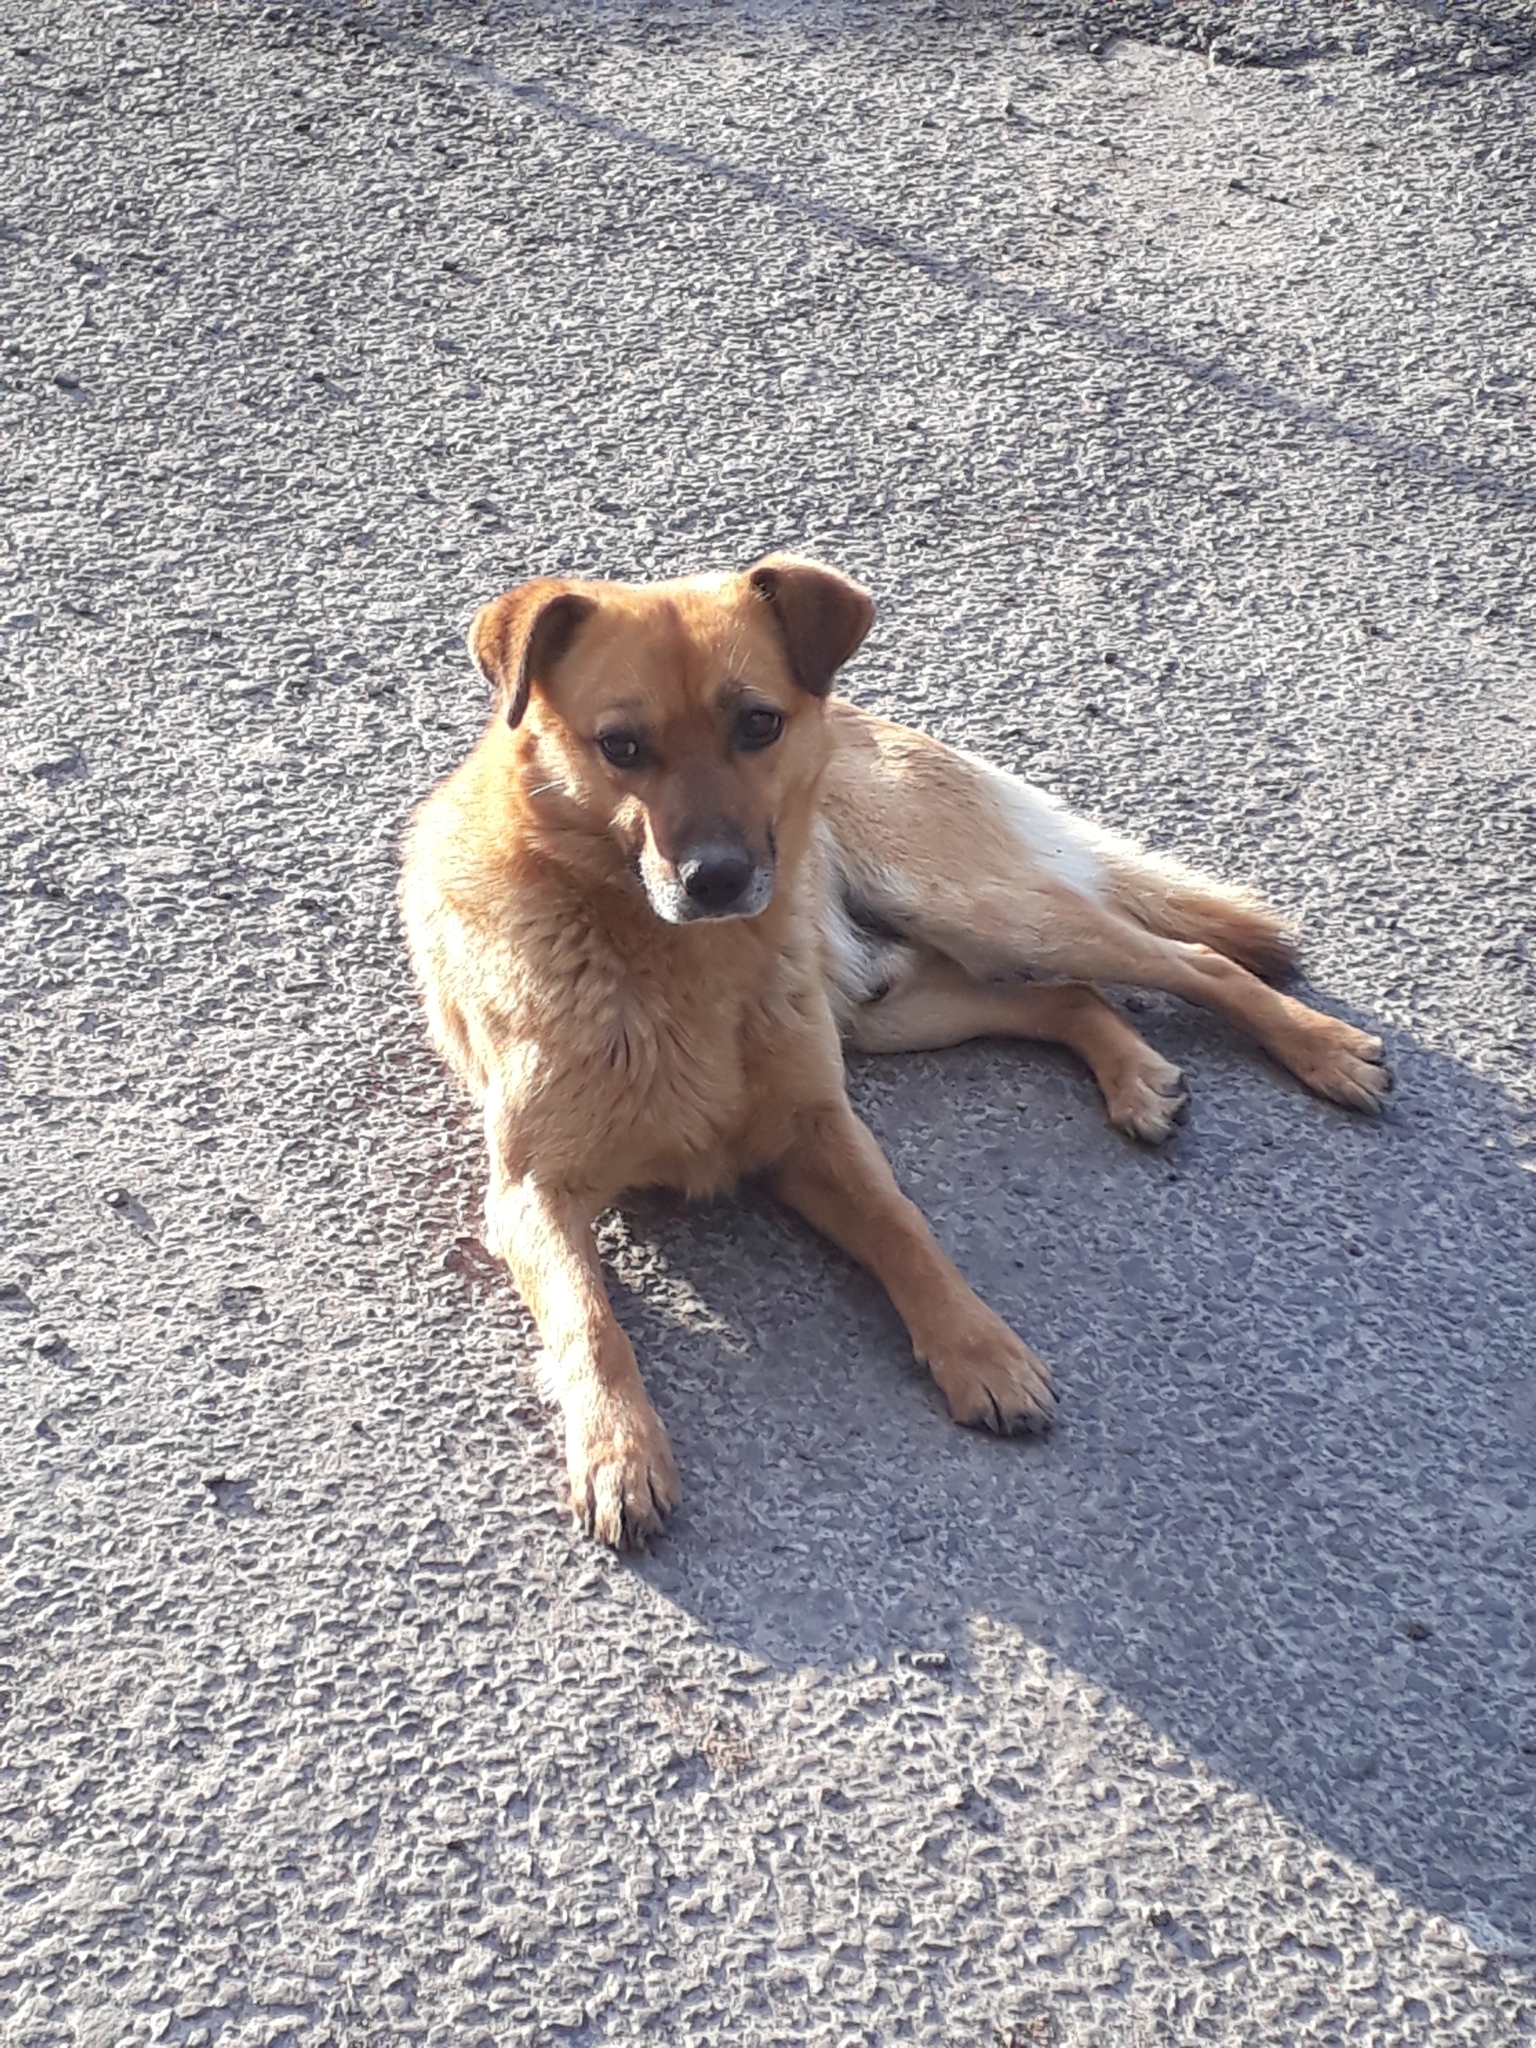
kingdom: Animalia
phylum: Chordata
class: Mammalia
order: Carnivora
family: Canidae
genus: Canis
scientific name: Canis lupus
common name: Gray wolf
